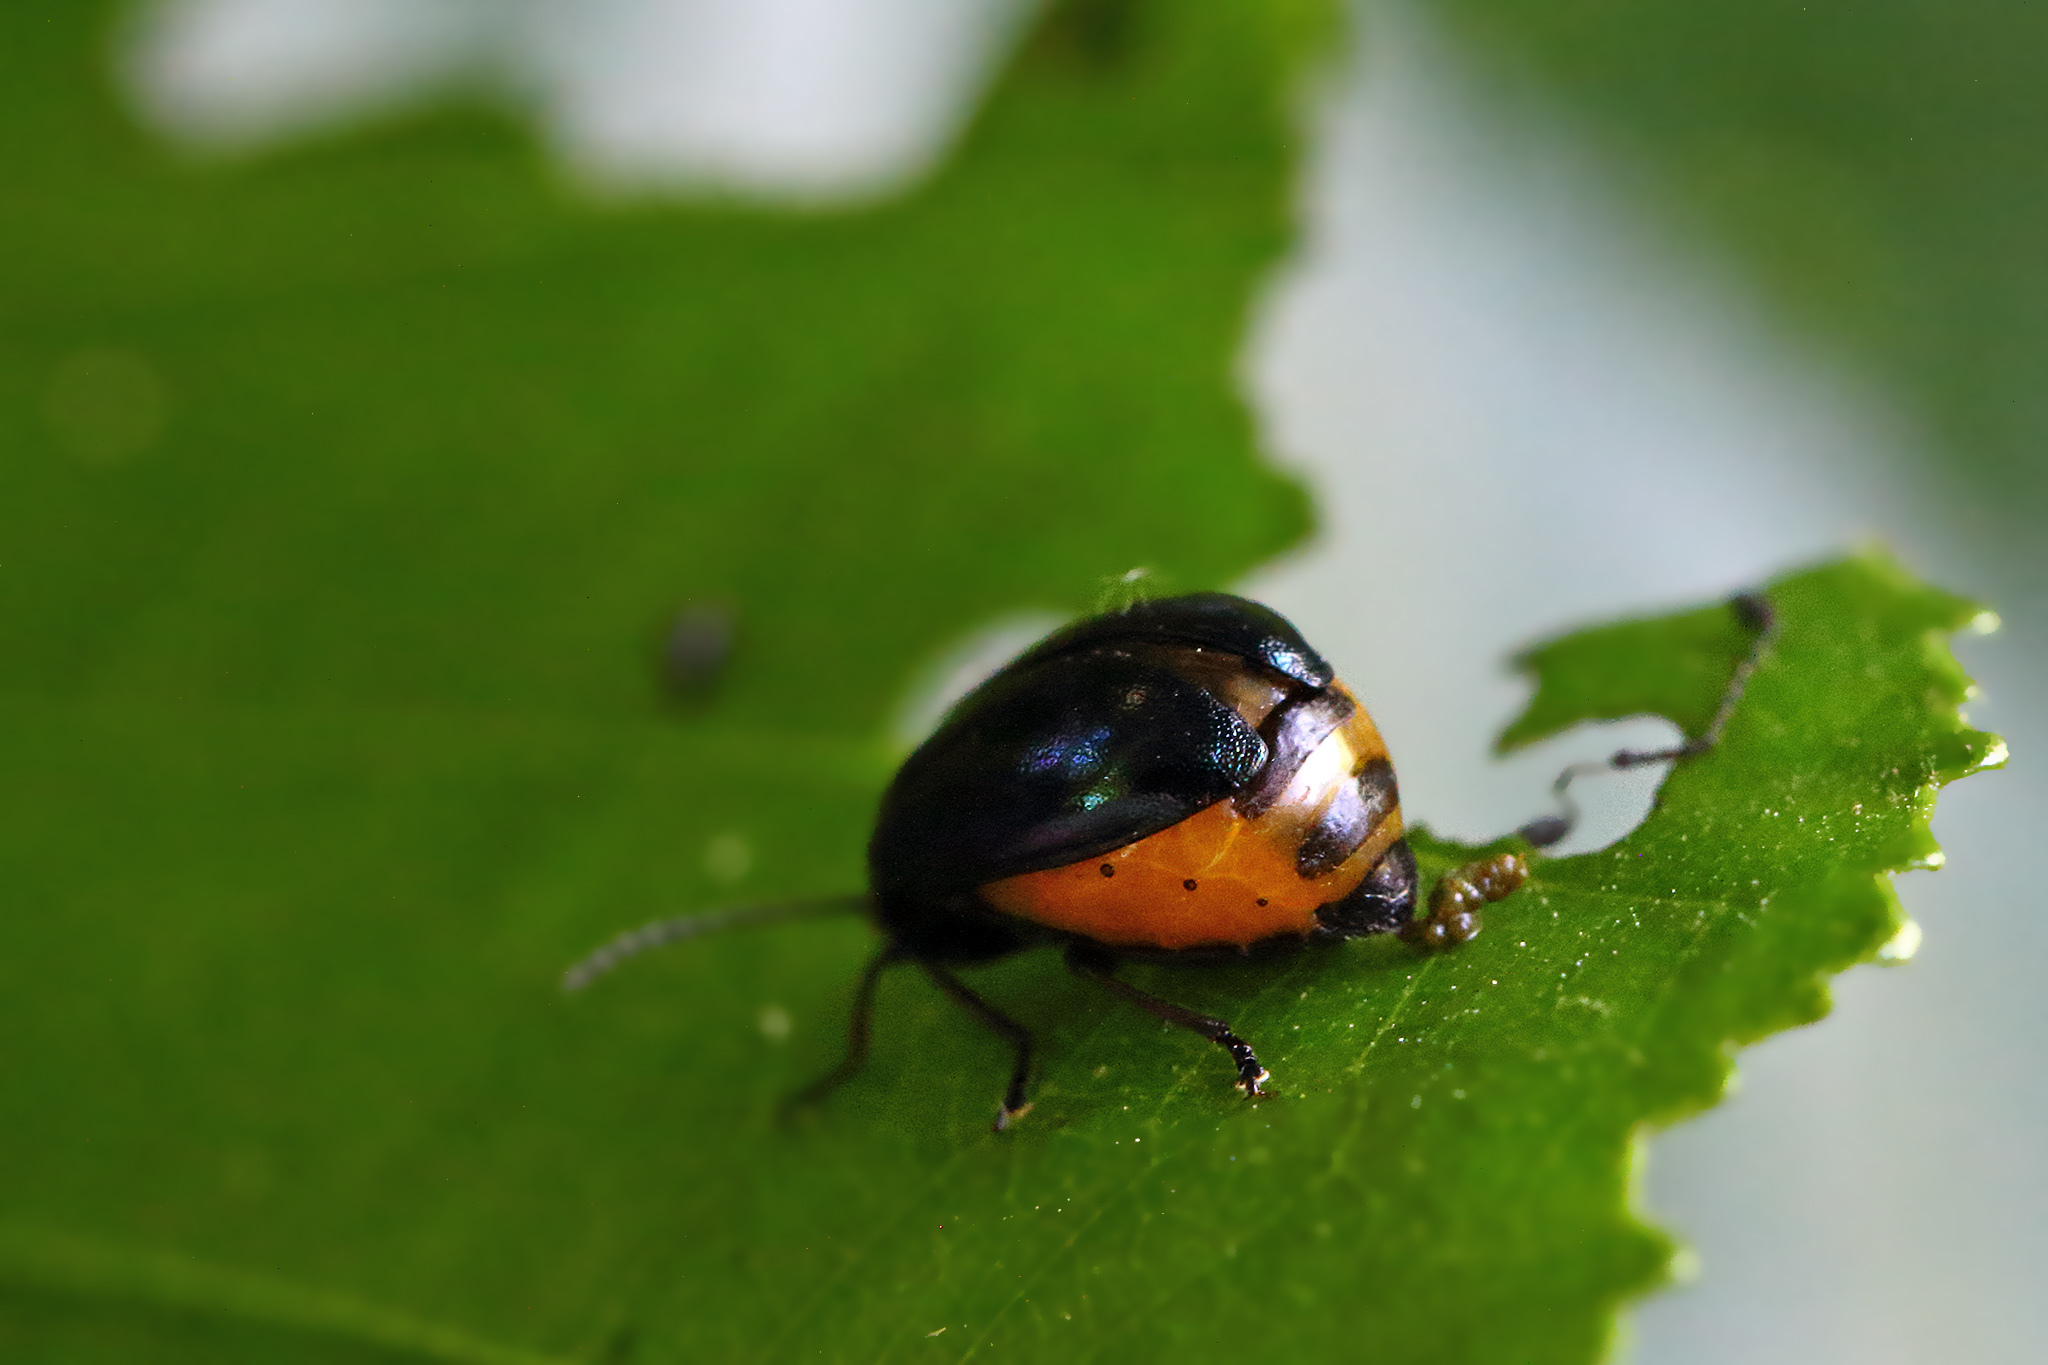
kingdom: Animalia
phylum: Arthropoda
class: Insecta
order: Coleoptera
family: Chrysomelidae
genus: Agelastica
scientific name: Agelastica alni
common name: Alder leaf beetle
